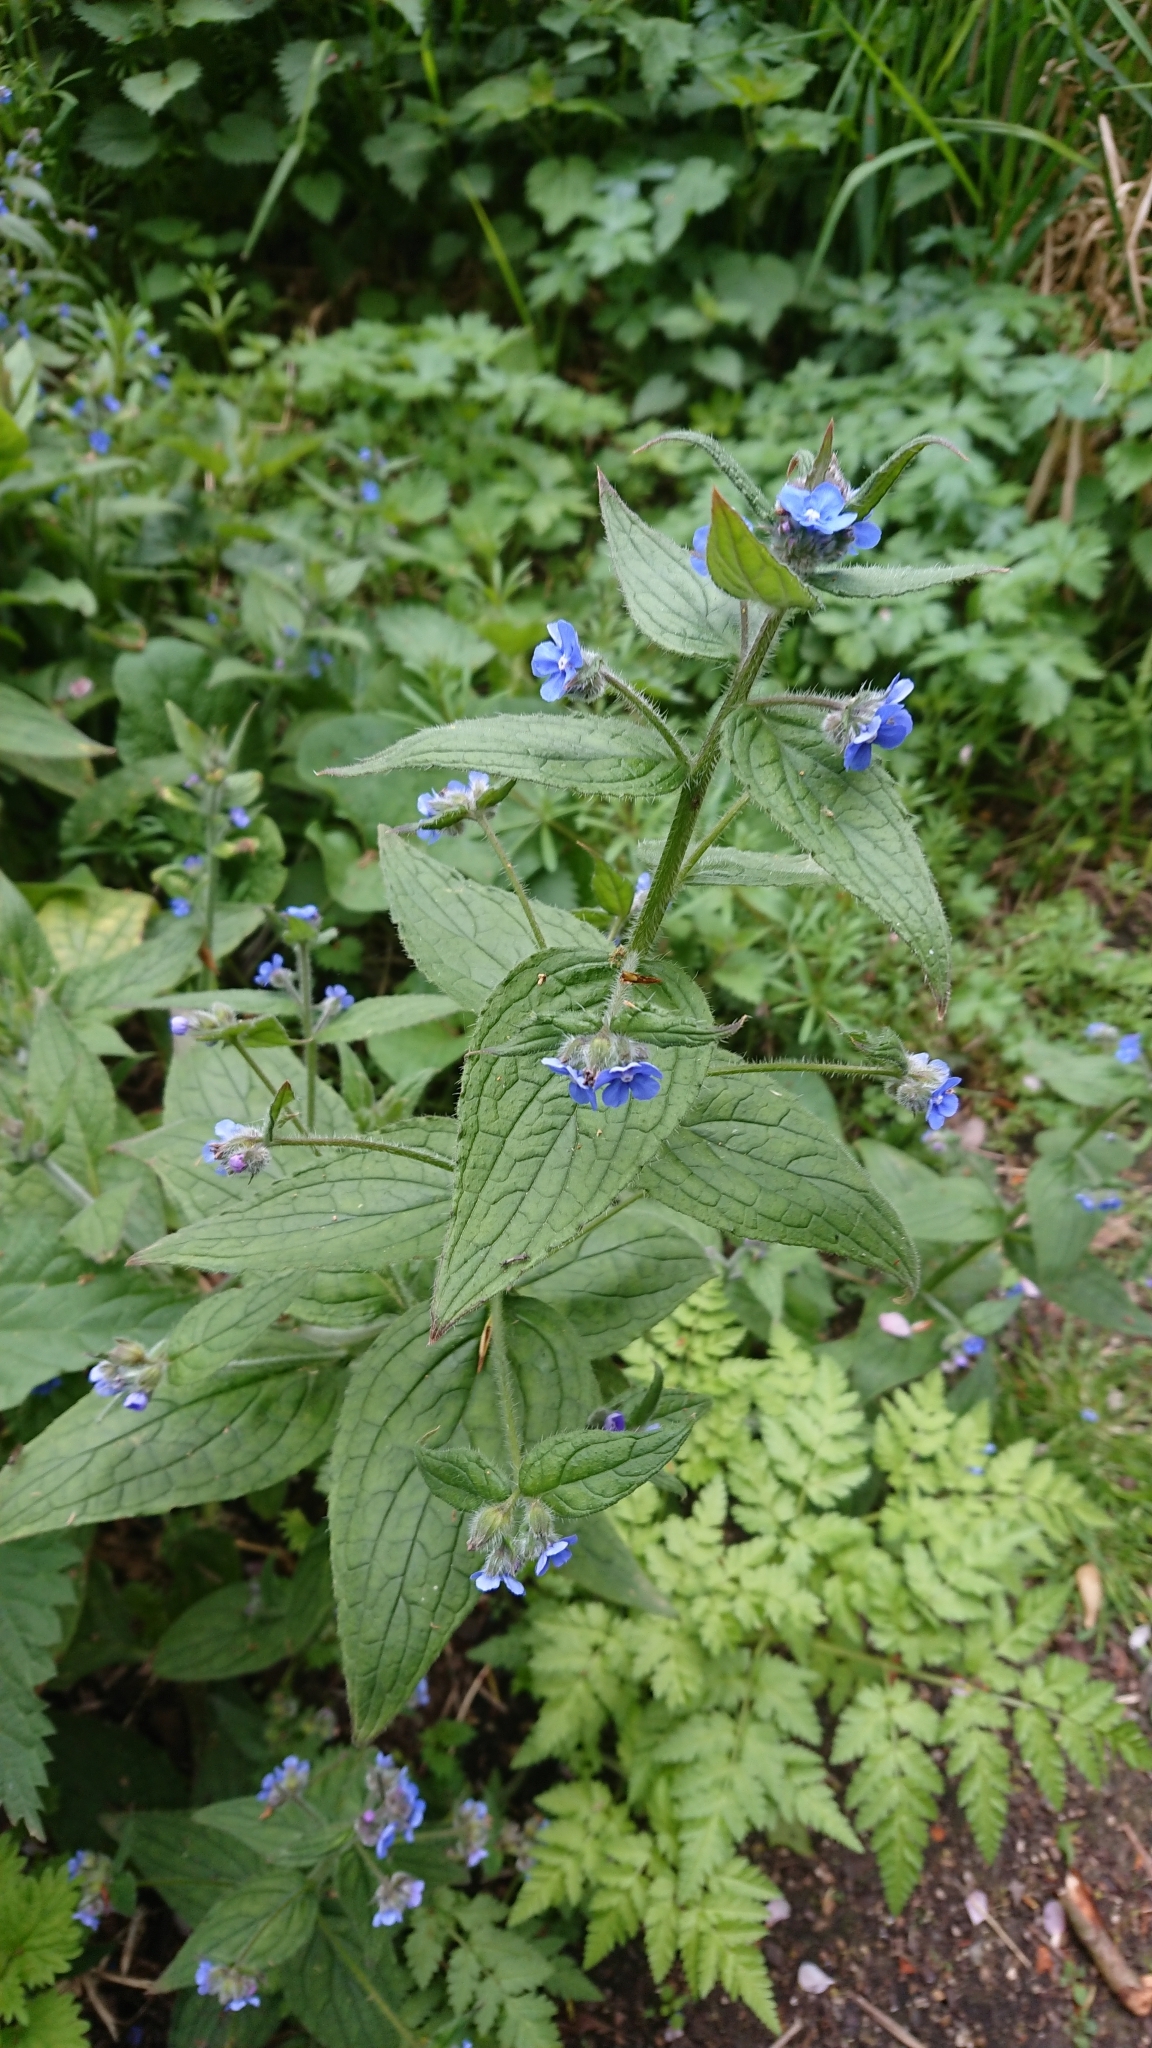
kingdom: Plantae
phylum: Tracheophyta
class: Magnoliopsida
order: Boraginales
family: Boraginaceae
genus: Pentaglottis
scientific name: Pentaglottis sempervirens
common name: Green alkanet
